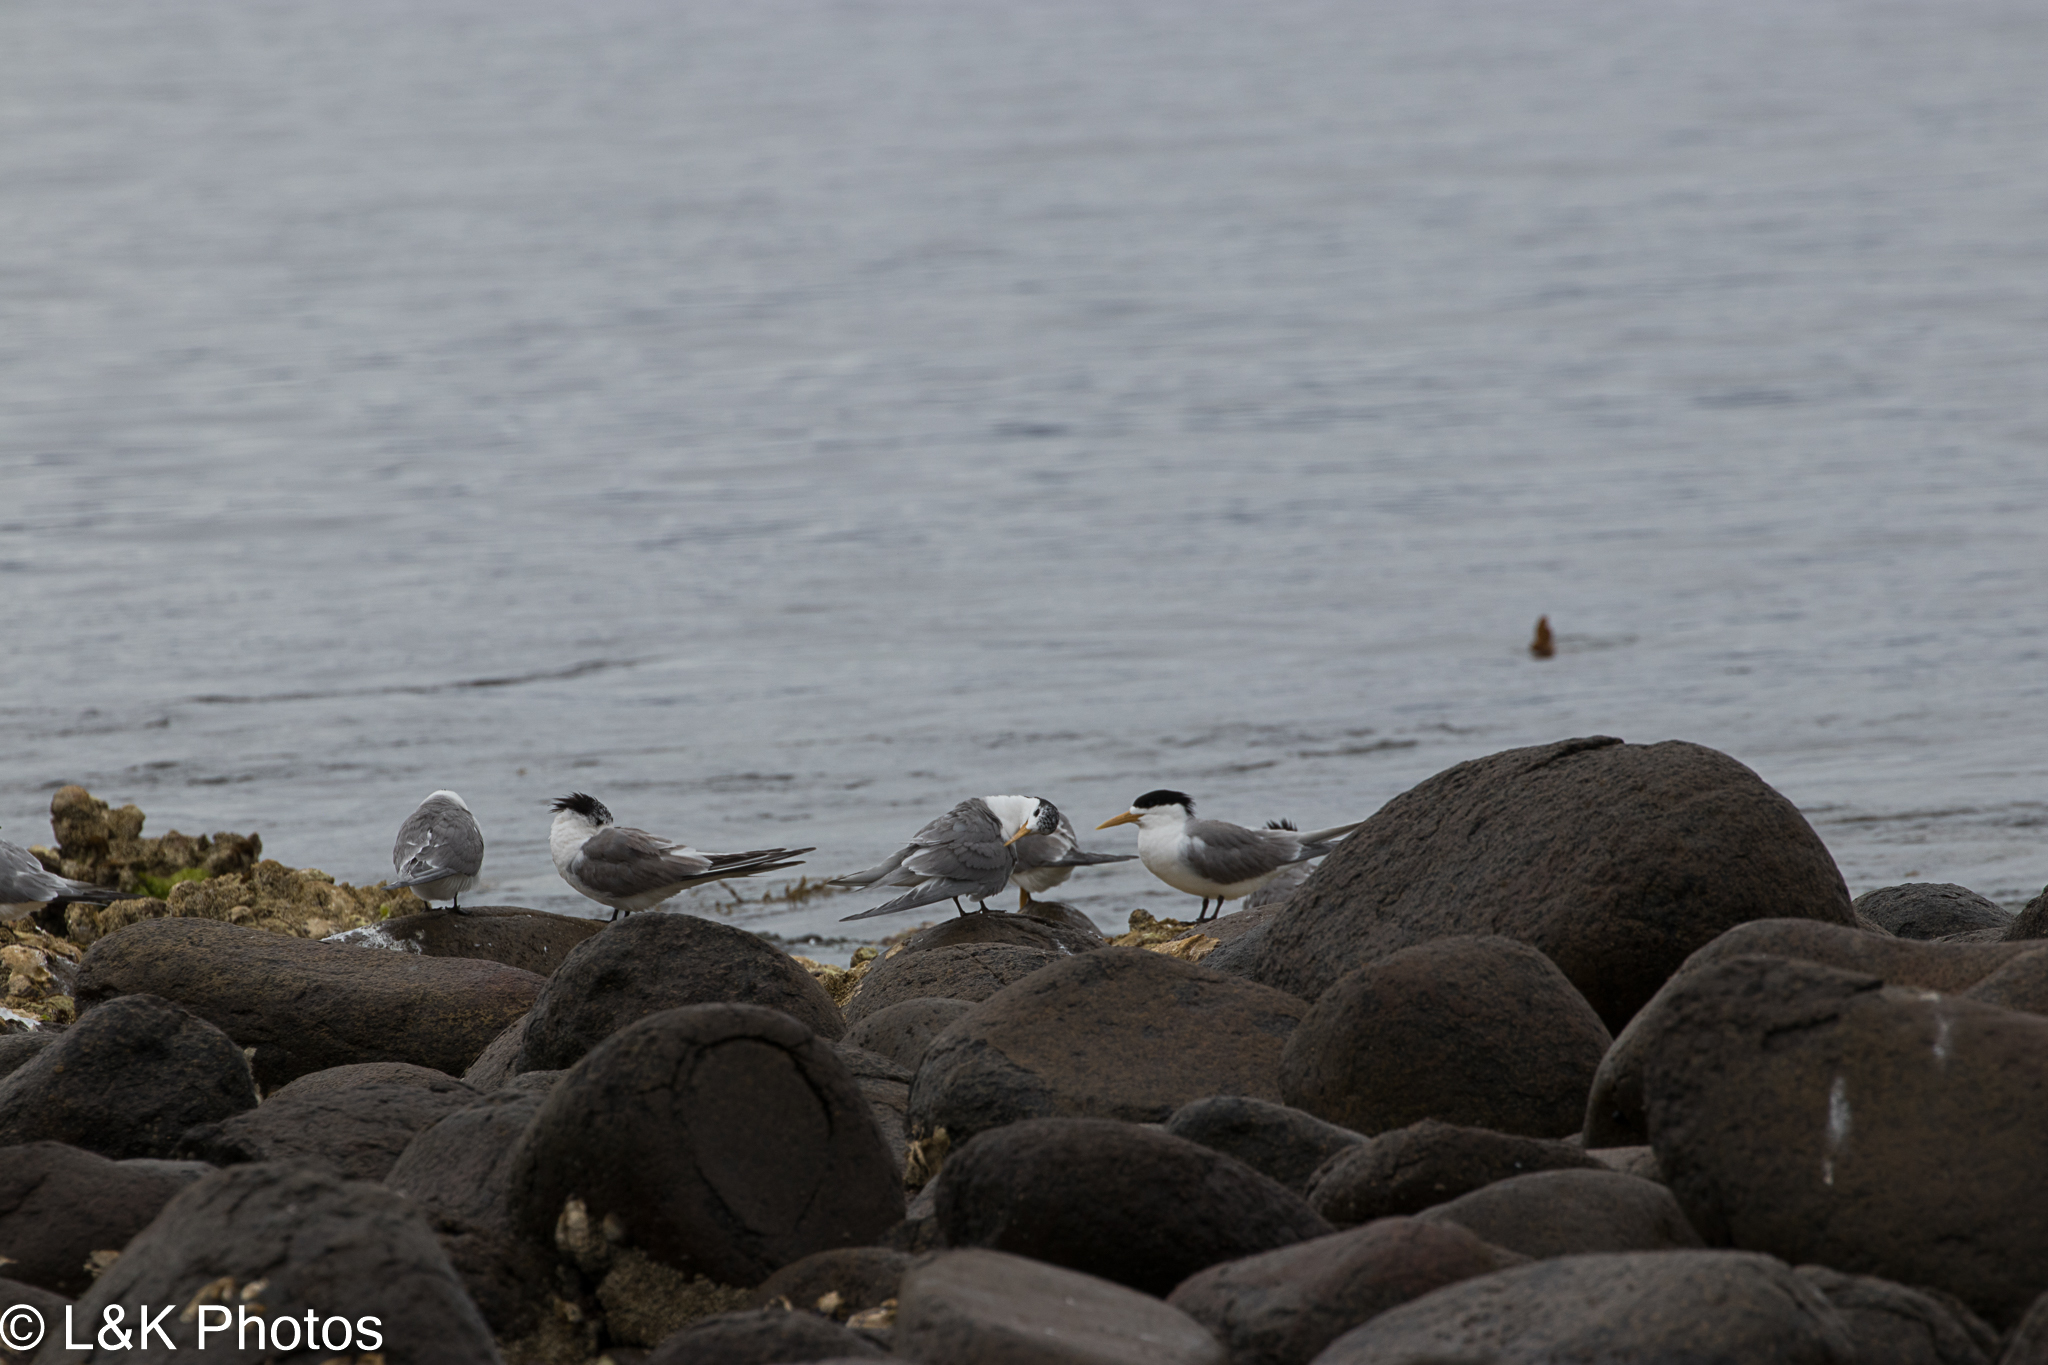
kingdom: Animalia
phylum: Chordata
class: Aves
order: Charadriiformes
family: Laridae
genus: Thalasseus
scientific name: Thalasseus bergii
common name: Greater crested tern
